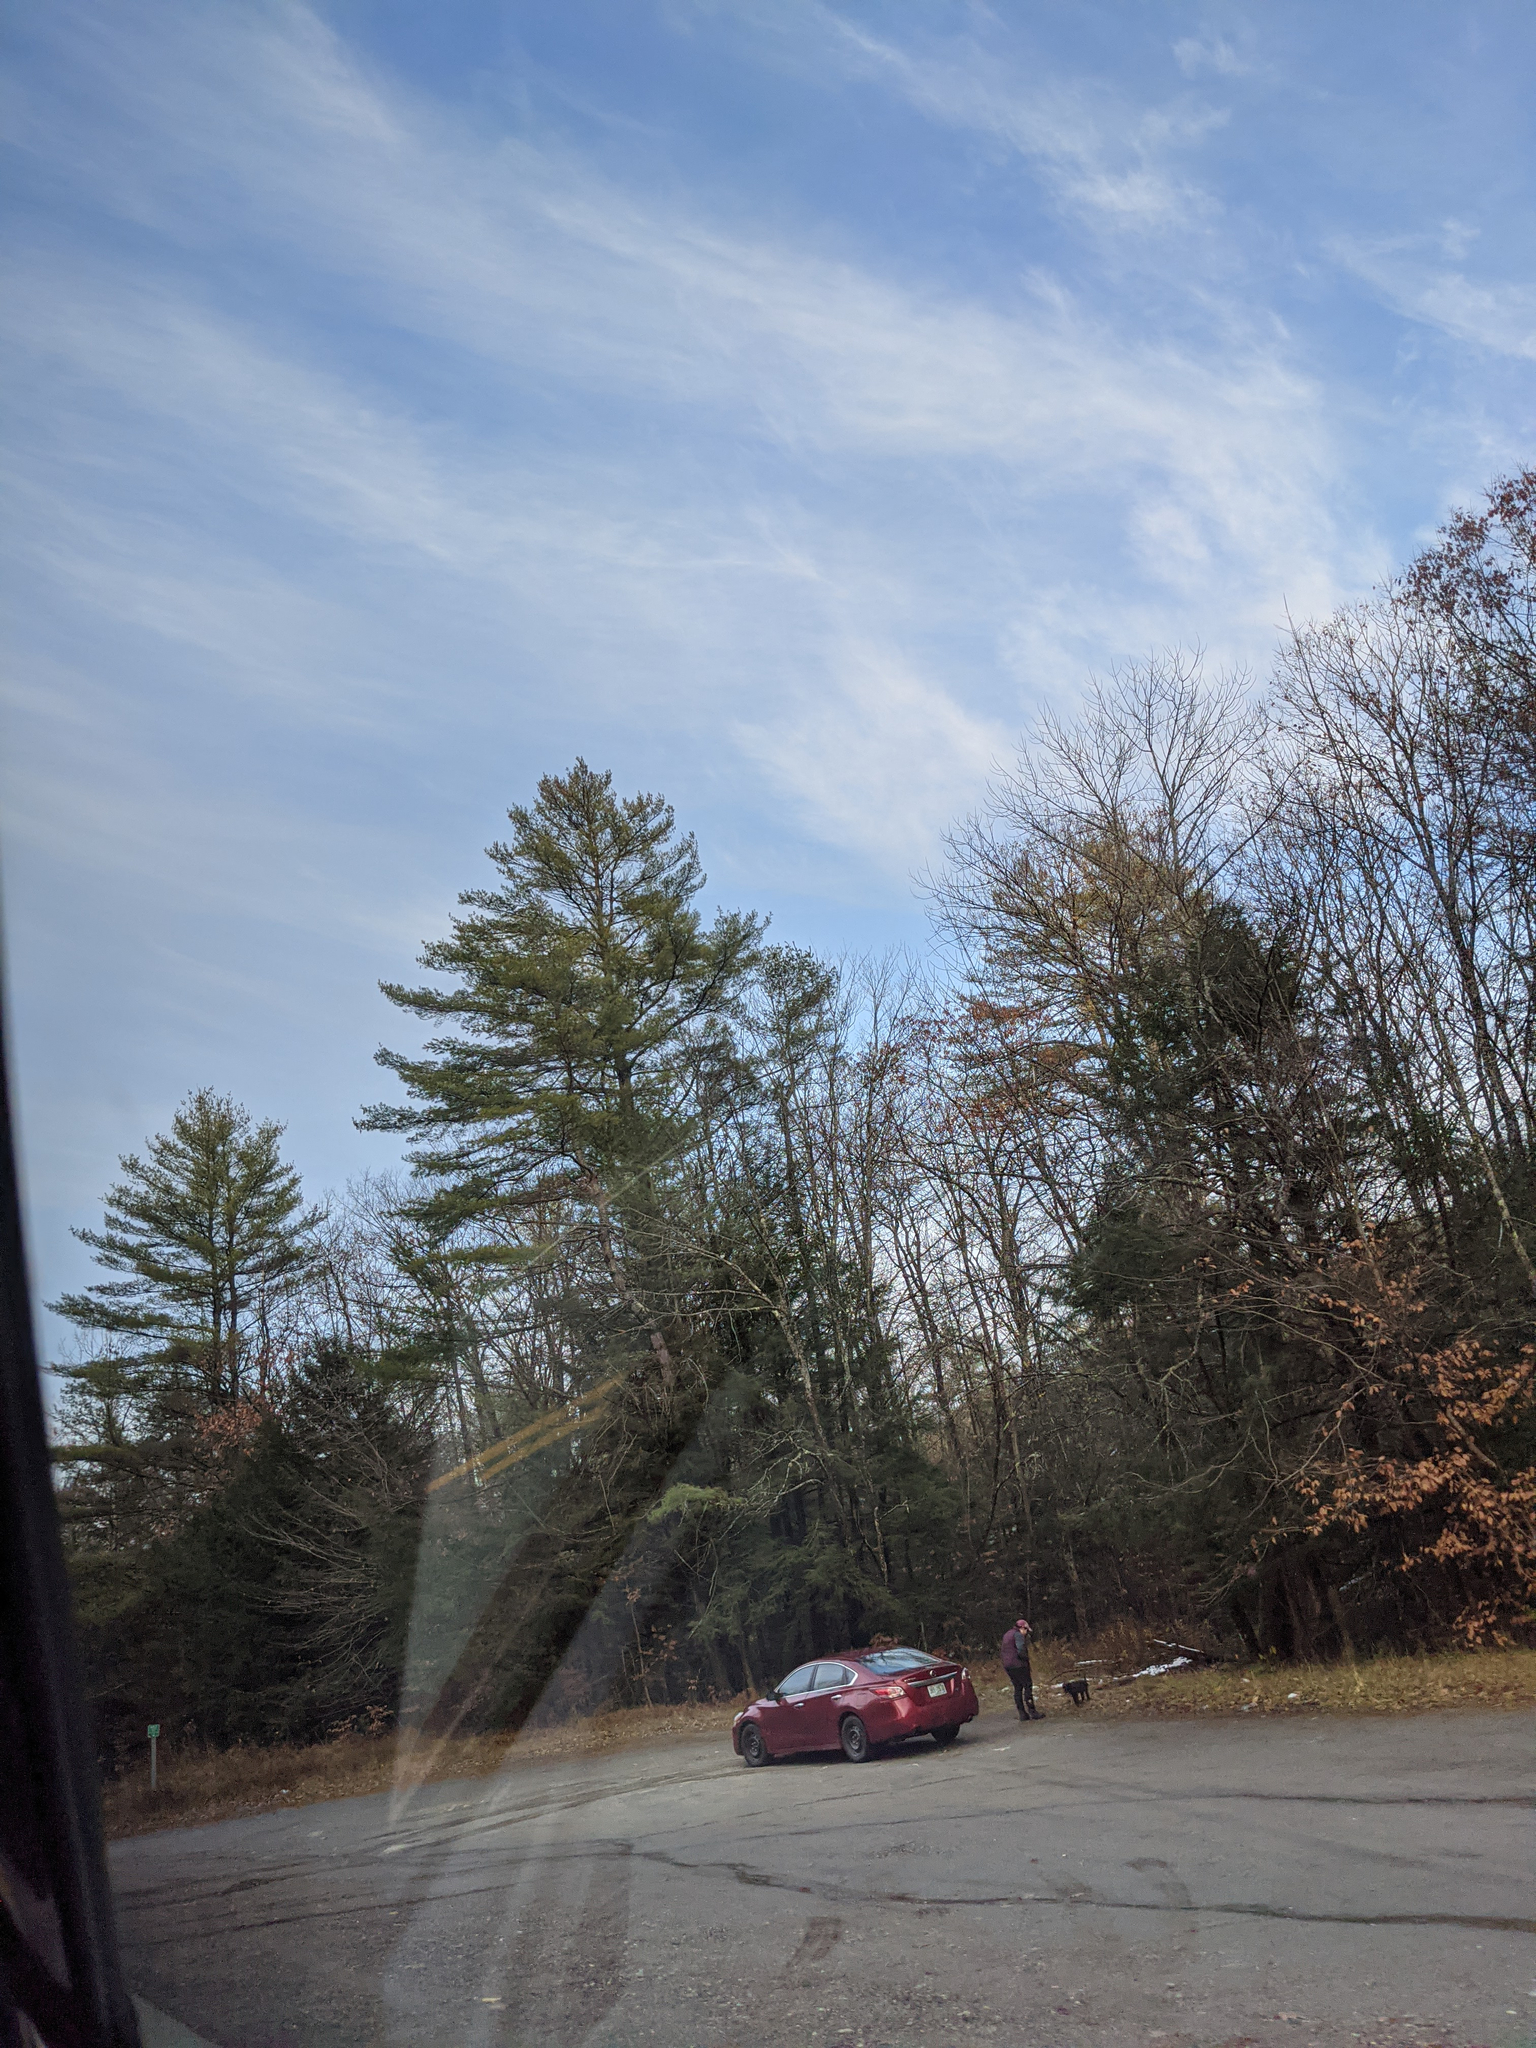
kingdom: Plantae
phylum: Tracheophyta
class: Pinopsida
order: Pinales
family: Pinaceae
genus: Pinus
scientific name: Pinus strobus
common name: Weymouth pine
